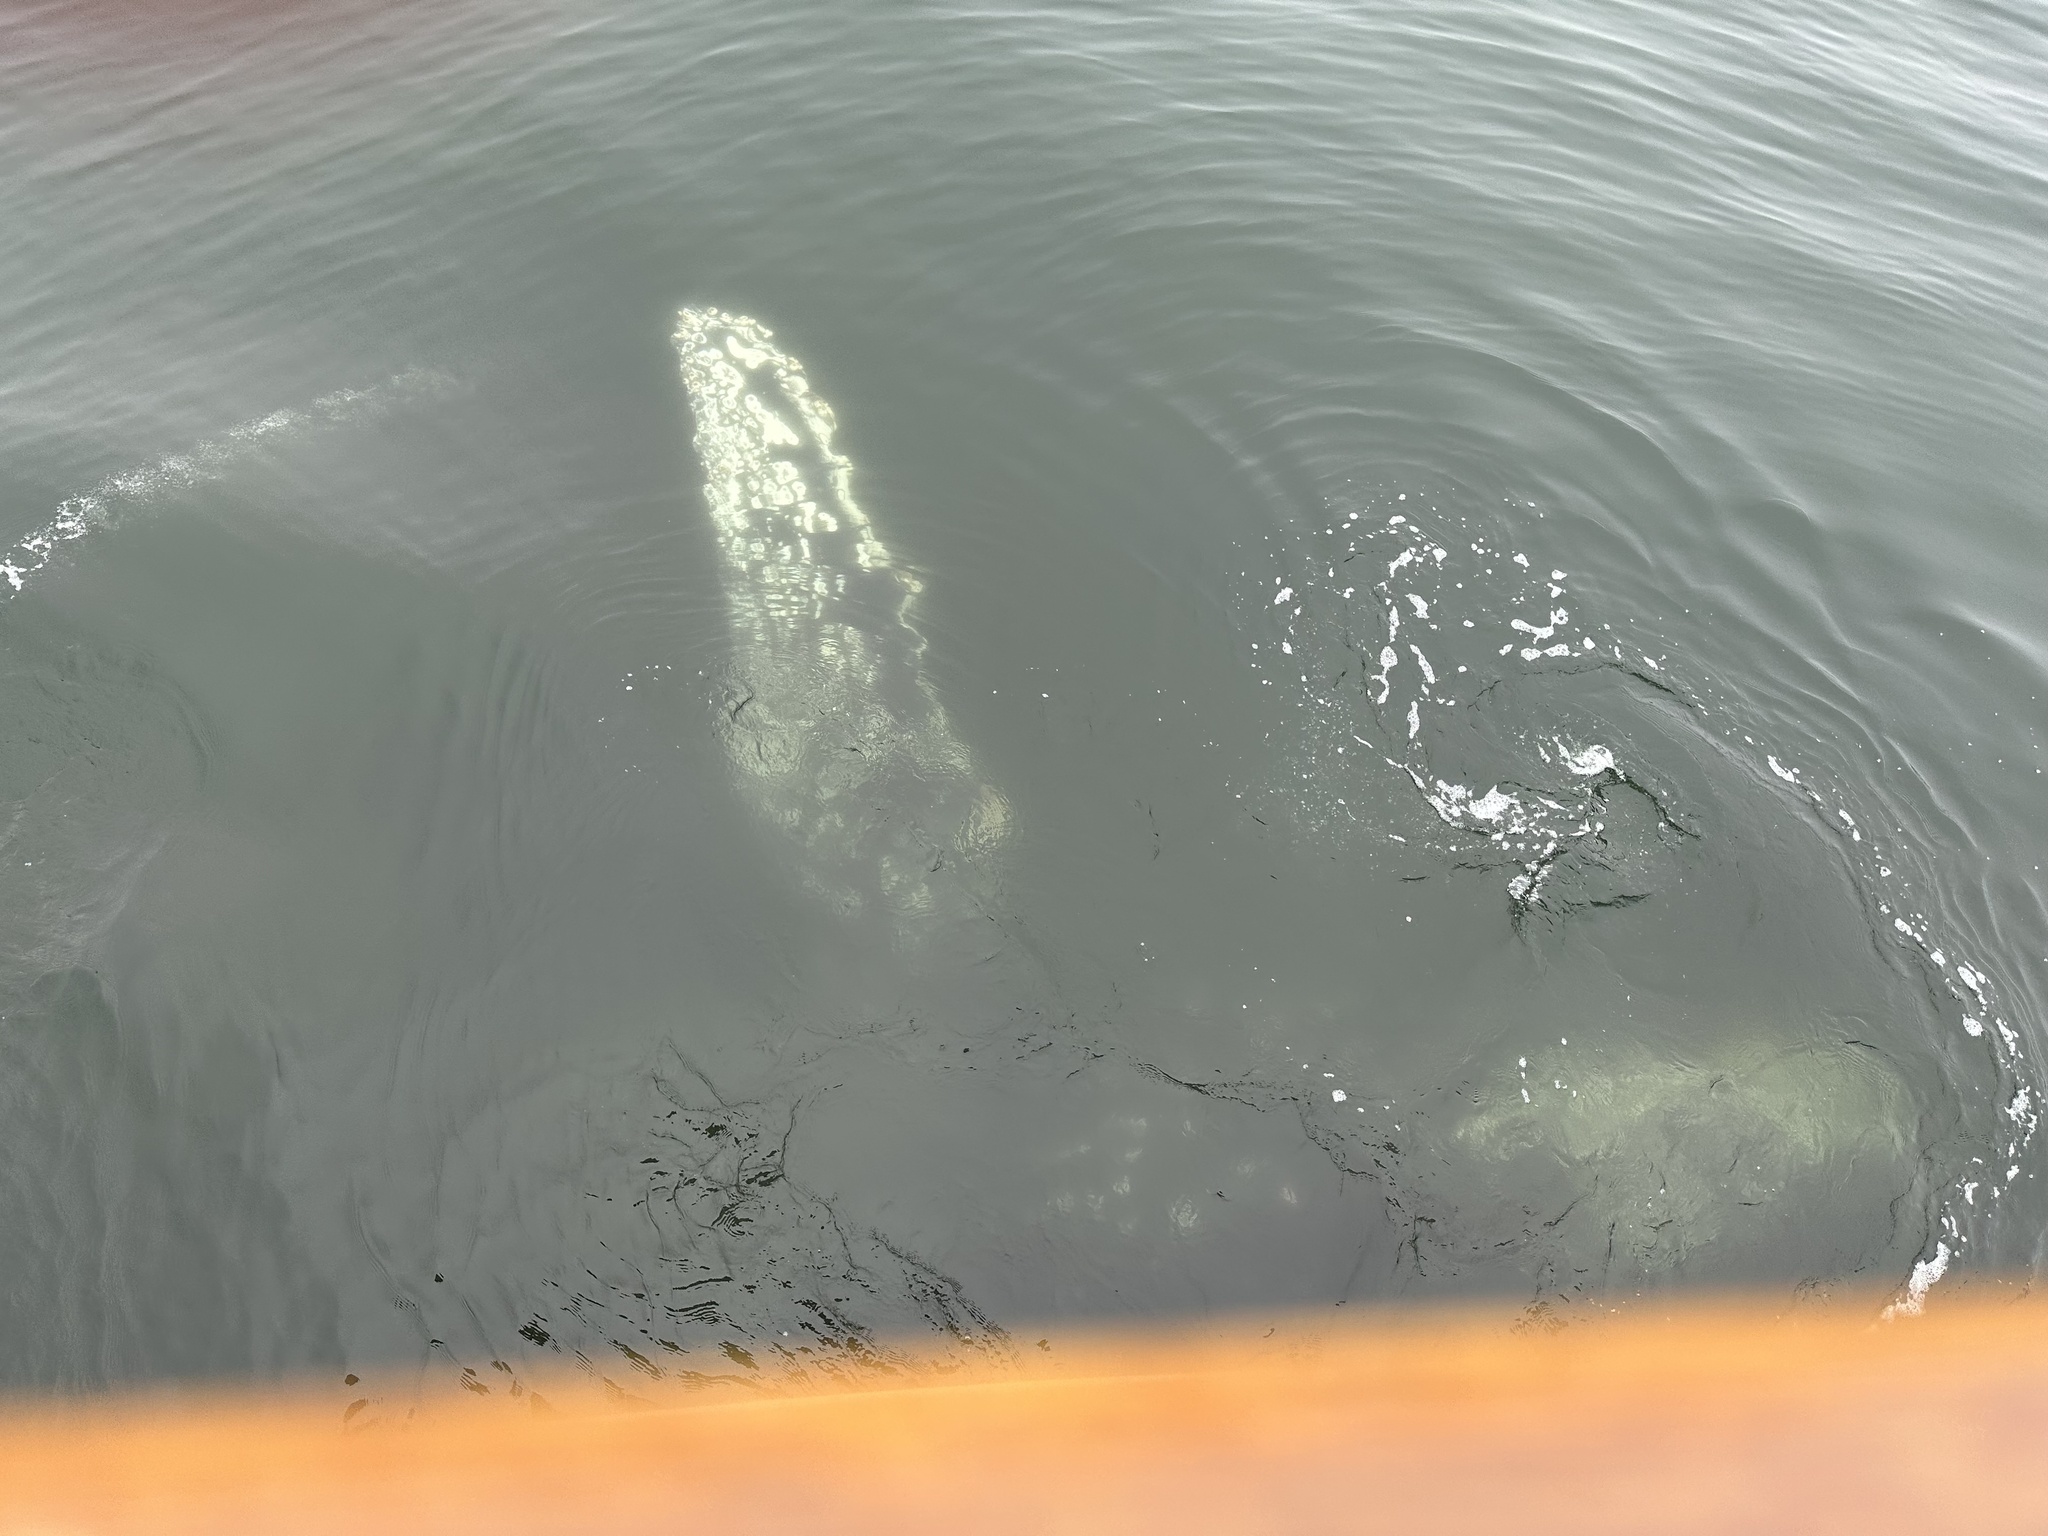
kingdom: Animalia
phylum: Chordata
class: Mammalia
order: Cetacea
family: Balaenopteridae
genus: Megaptera
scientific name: Megaptera novaeangliae
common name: Humpback whale
